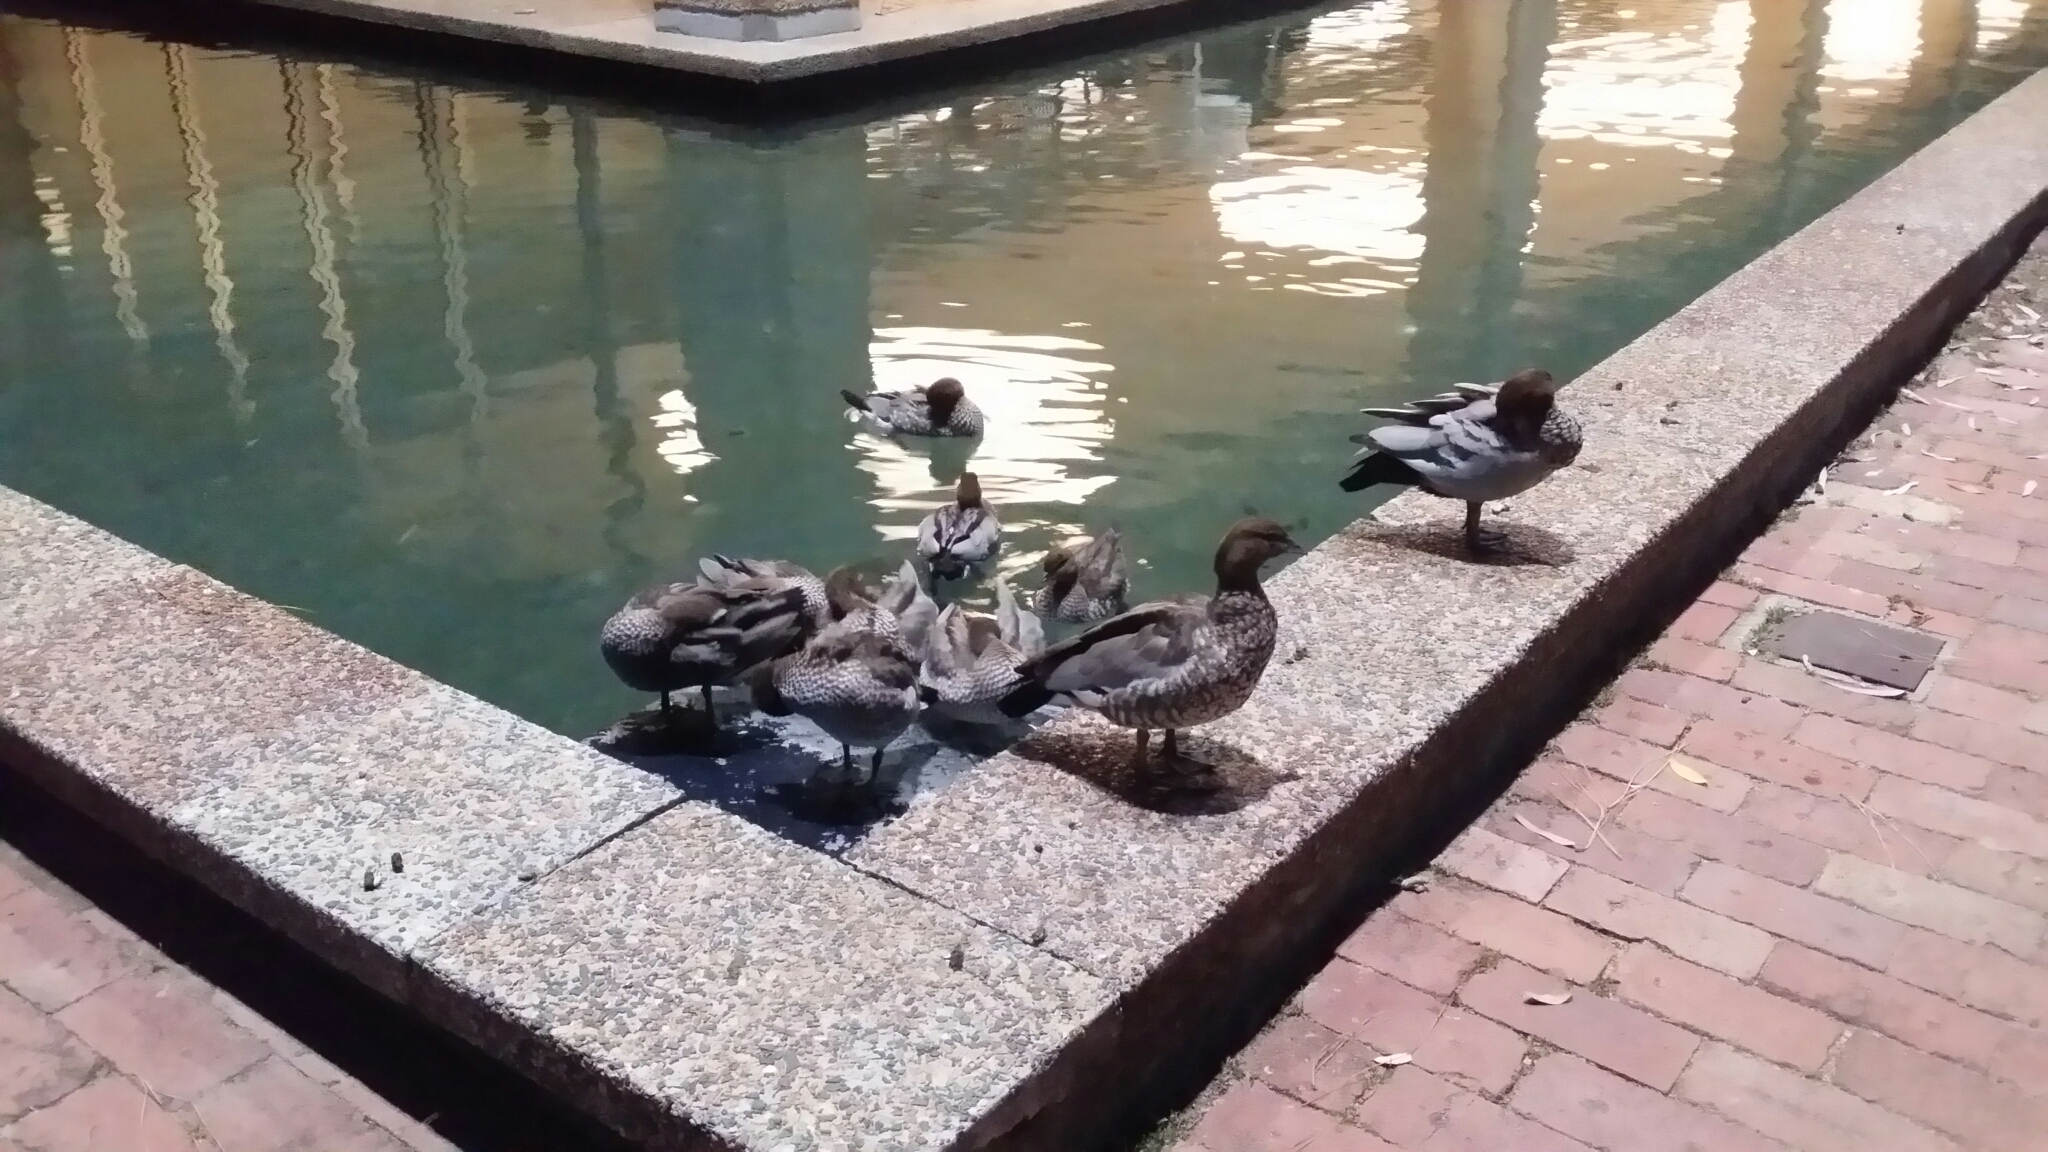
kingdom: Animalia
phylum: Chordata
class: Aves
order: Anseriformes
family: Anatidae
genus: Chenonetta
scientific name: Chenonetta jubata
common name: Maned duck
